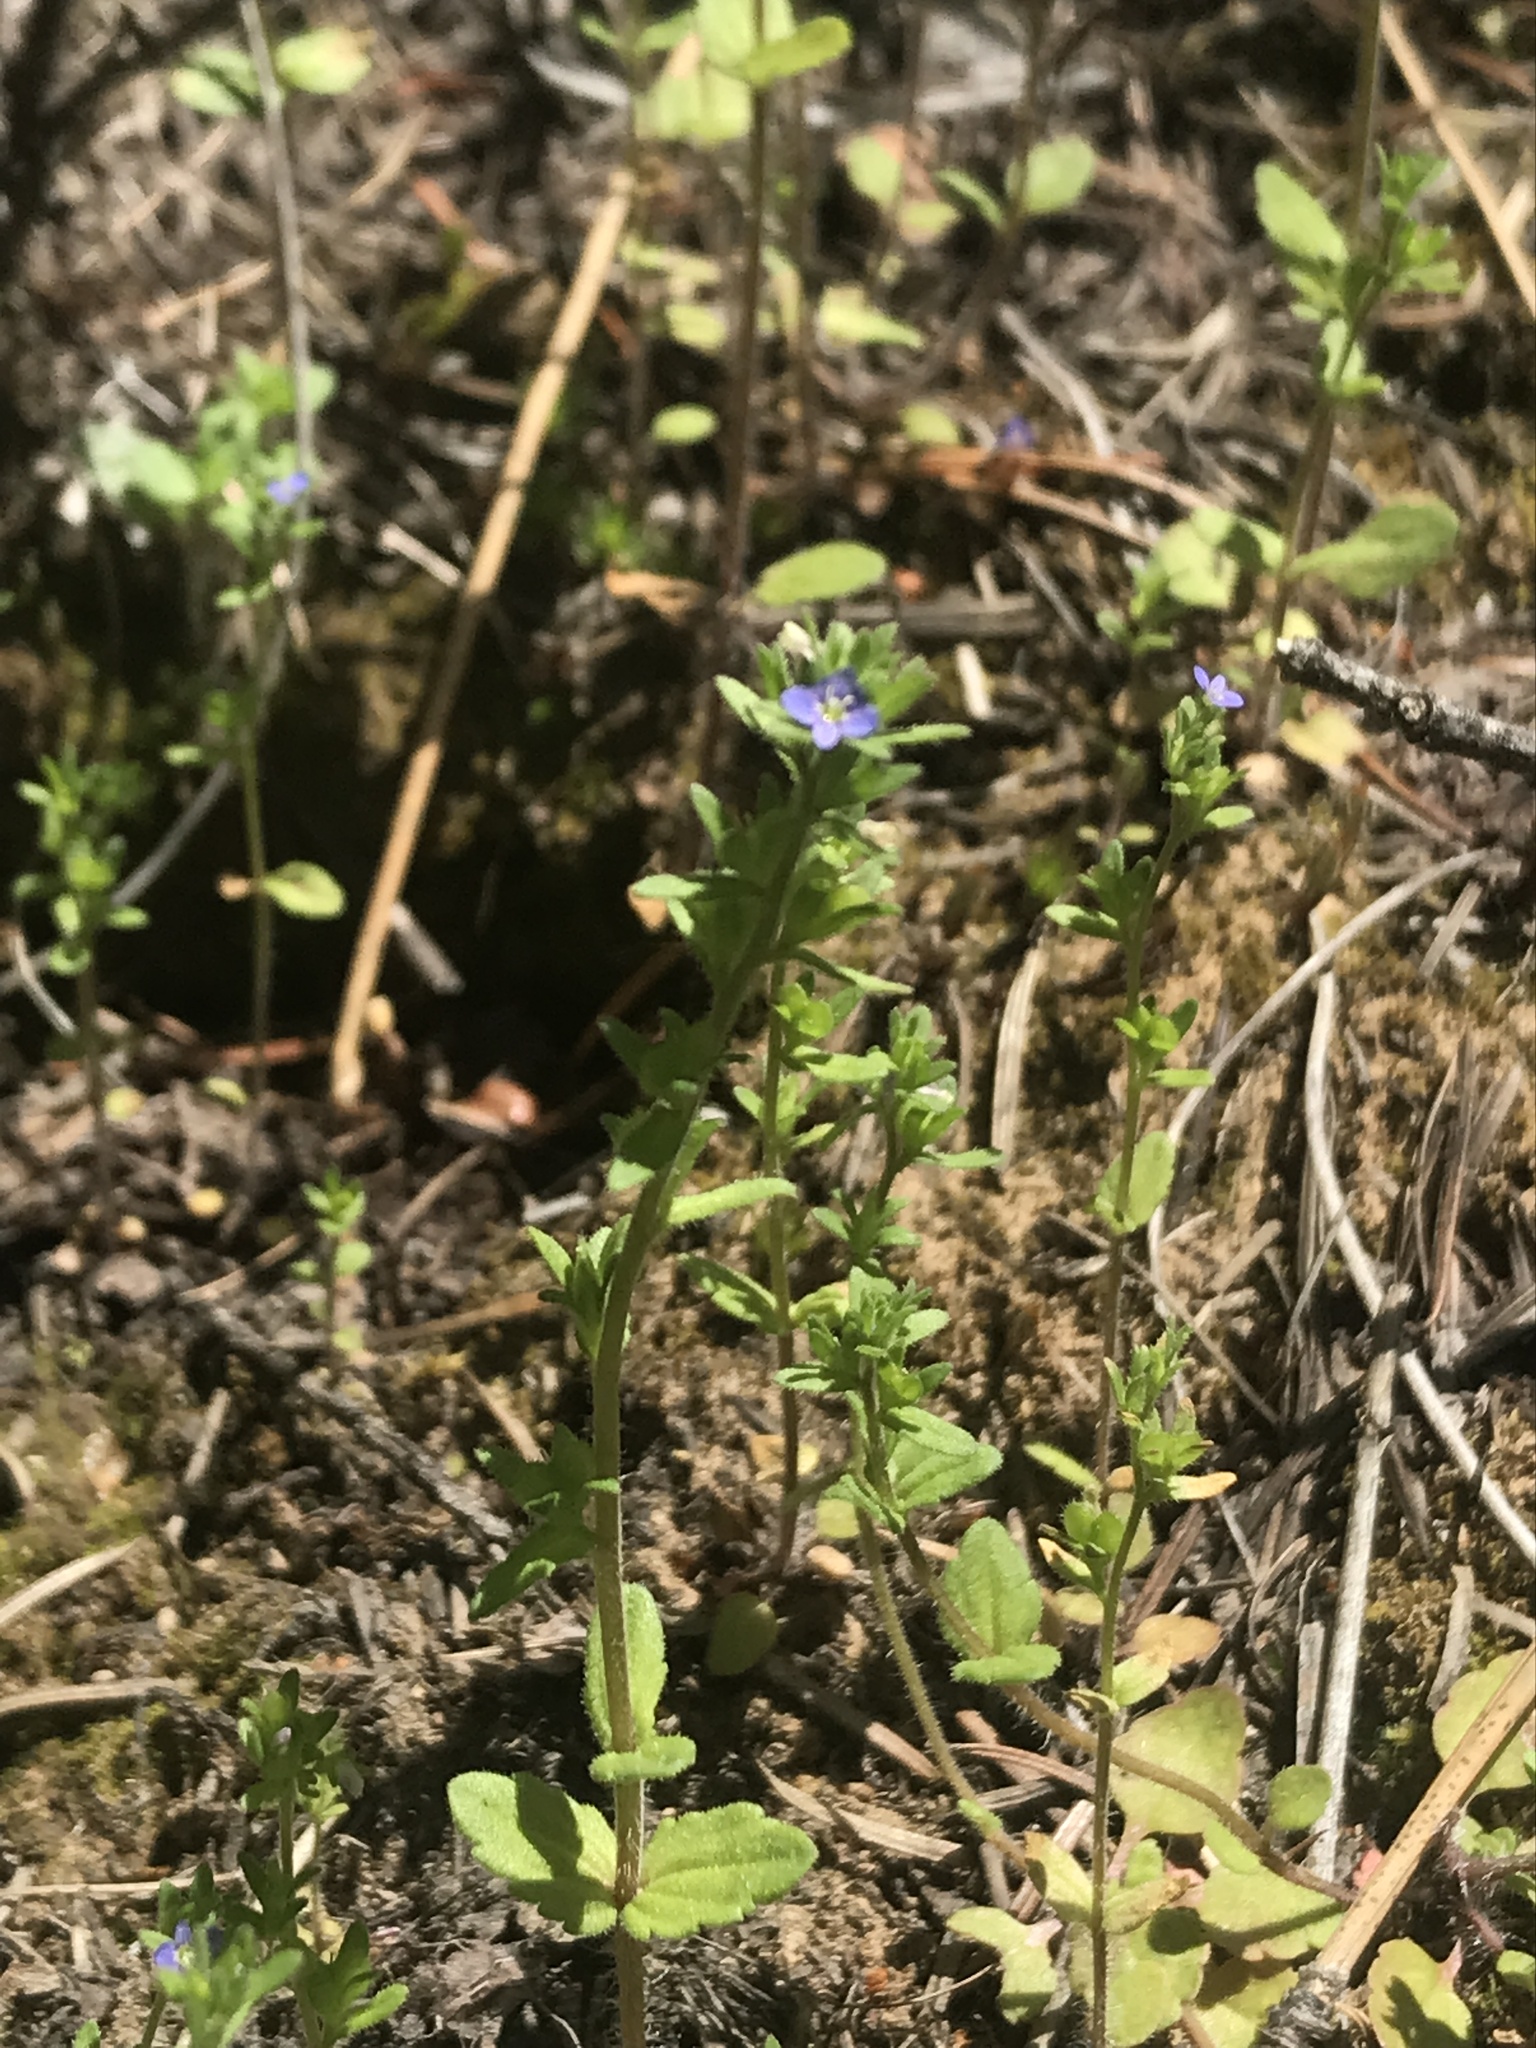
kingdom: Plantae
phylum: Tracheophyta
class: Magnoliopsida
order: Lamiales
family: Plantaginaceae
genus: Veronica
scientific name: Veronica arvensis
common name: Corn speedwell
